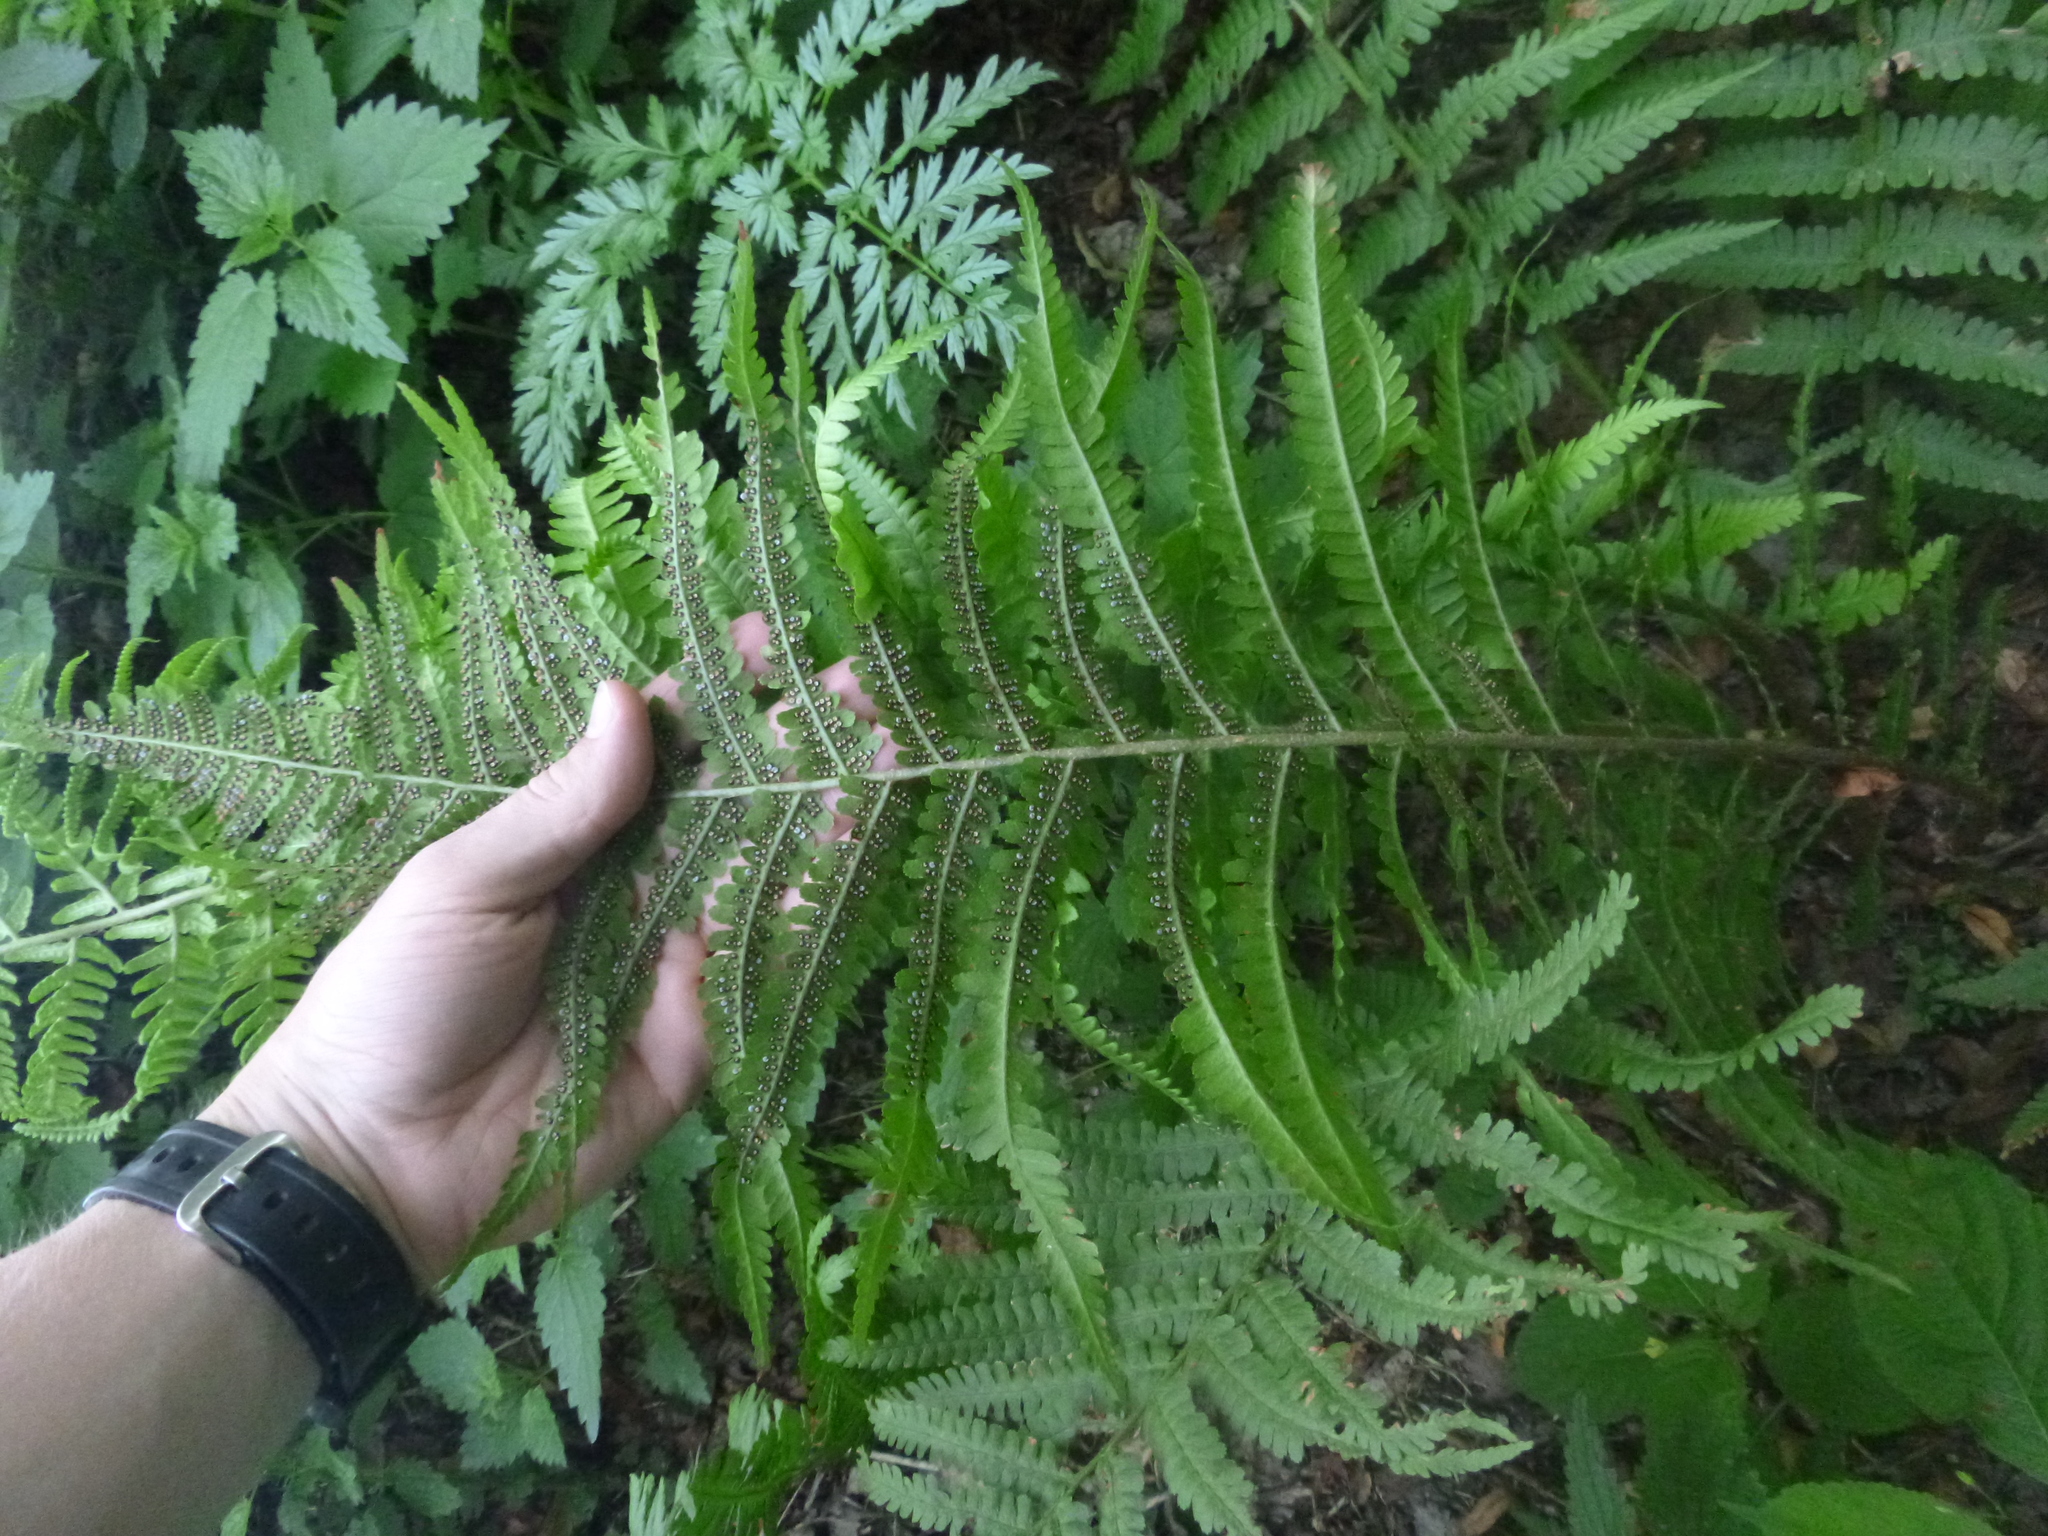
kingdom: Plantae
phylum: Tracheophyta
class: Polypodiopsida
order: Polypodiales
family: Dryopteridaceae
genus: Dryopteris
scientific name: Dryopteris filix-mas
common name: Male fern
